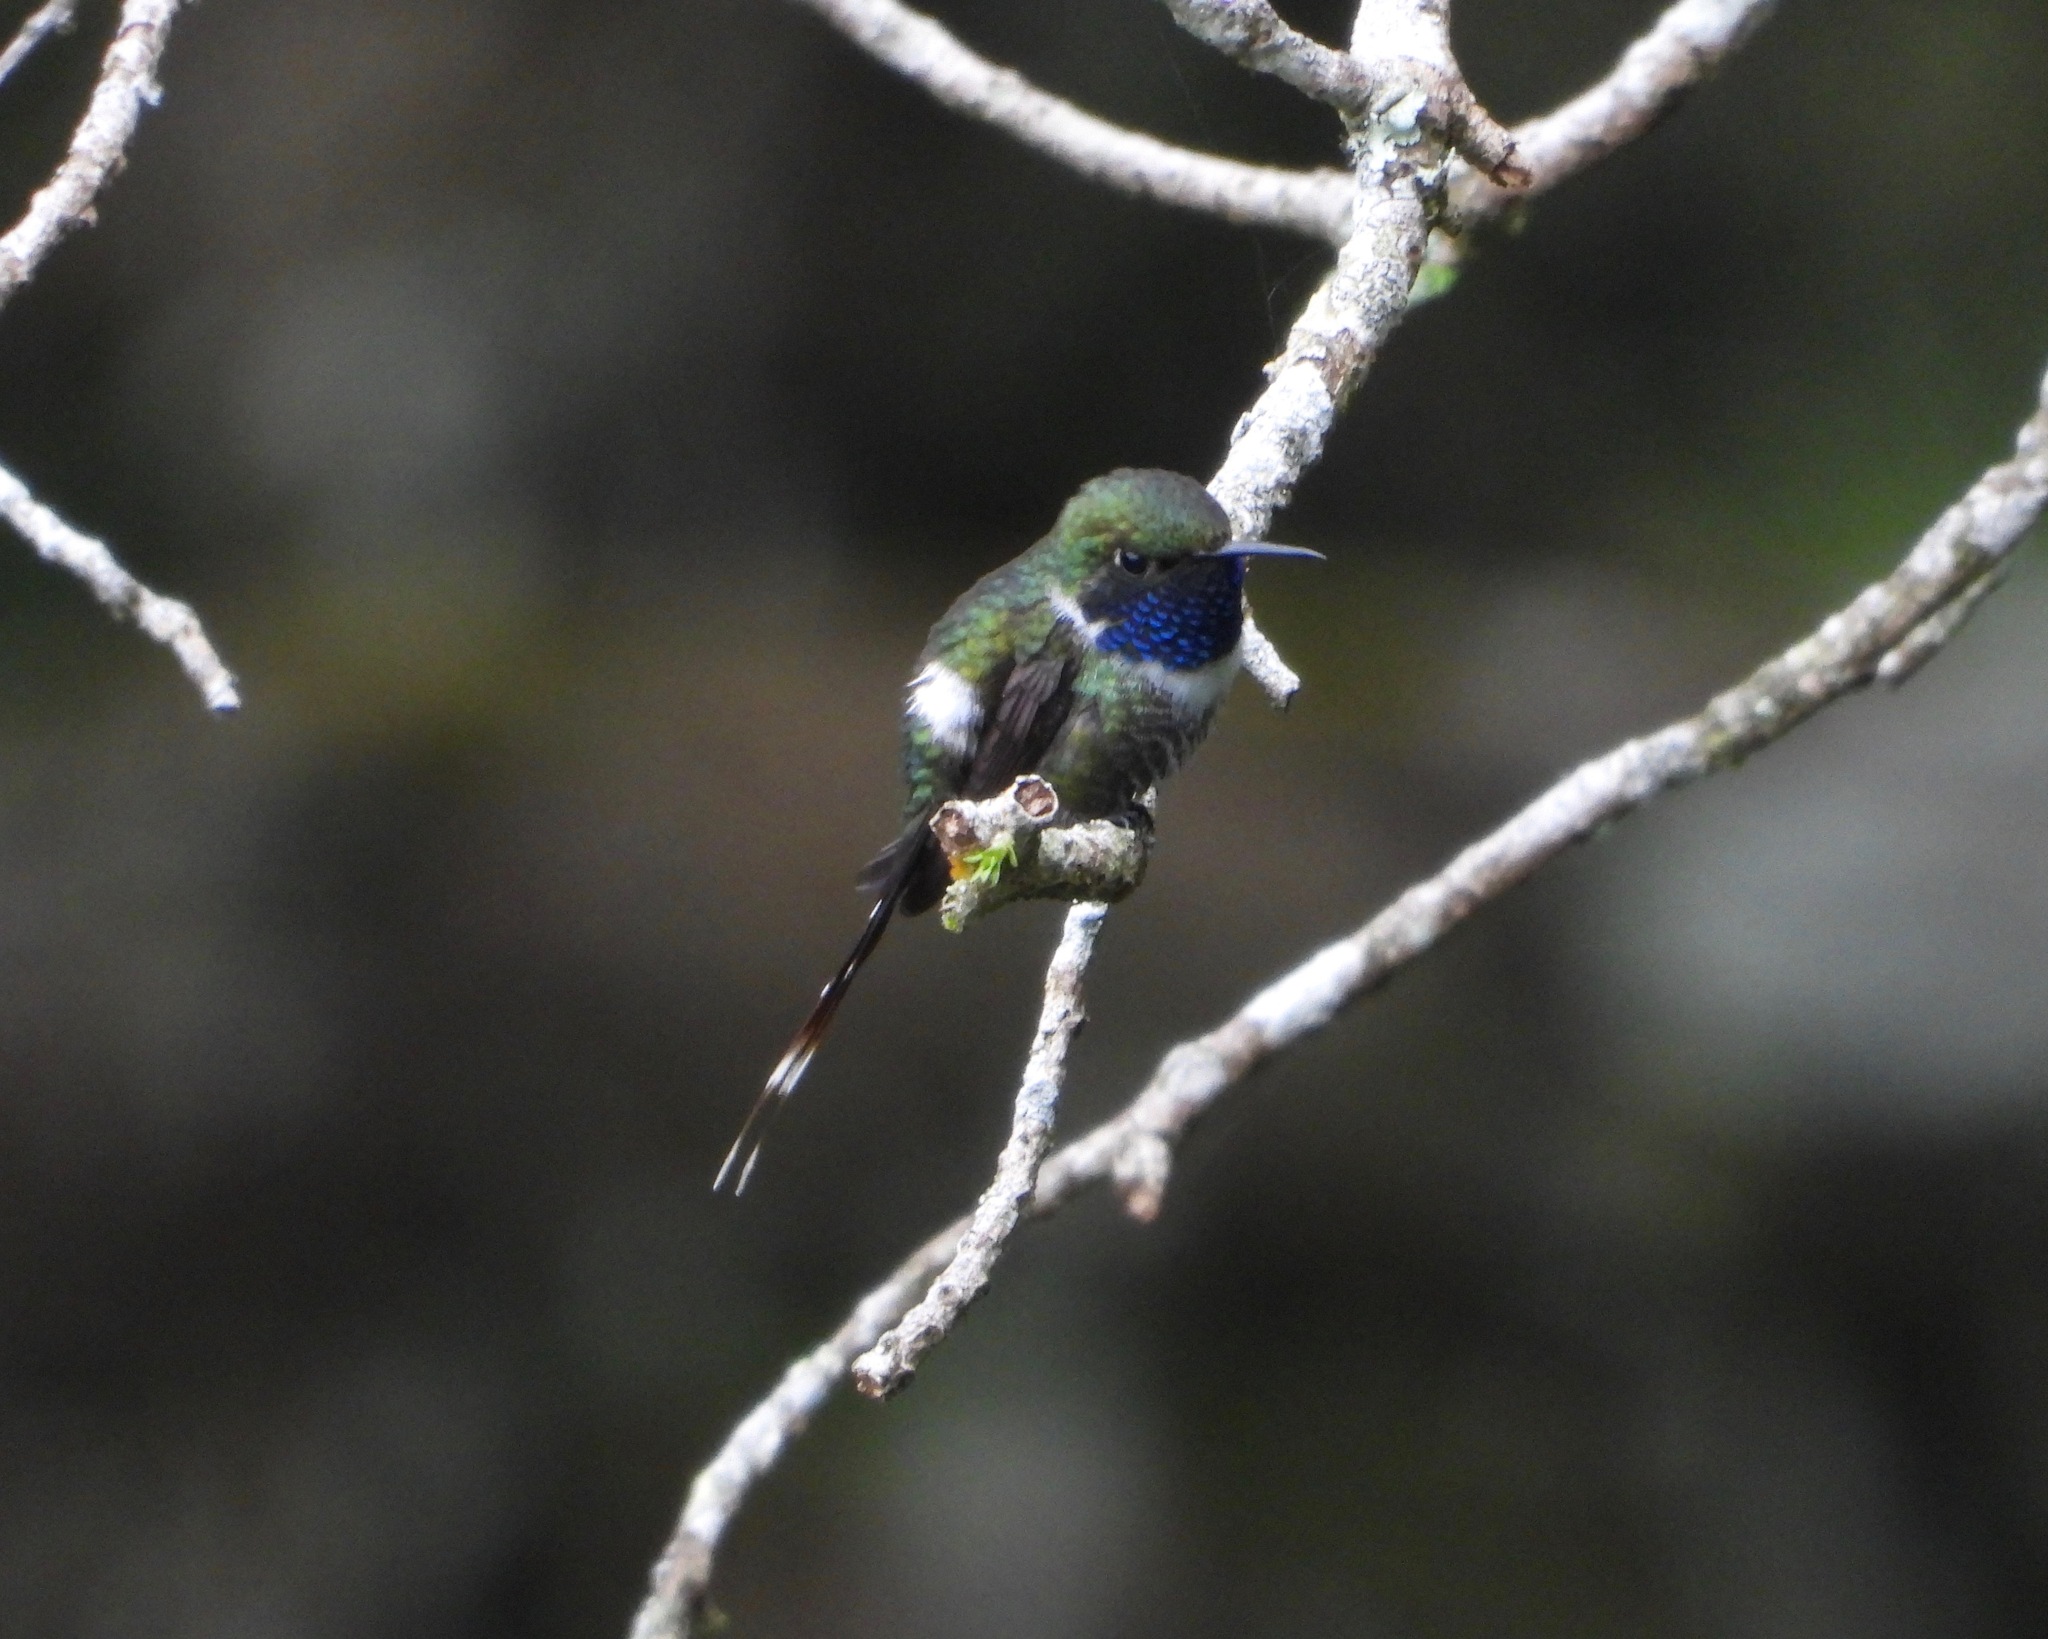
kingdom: Animalia
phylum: Chordata
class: Aves
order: Apodiformes
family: Trochilidae
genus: Tilmatura
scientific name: Tilmatura dupontii
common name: Sparkling-tailed woodstar
